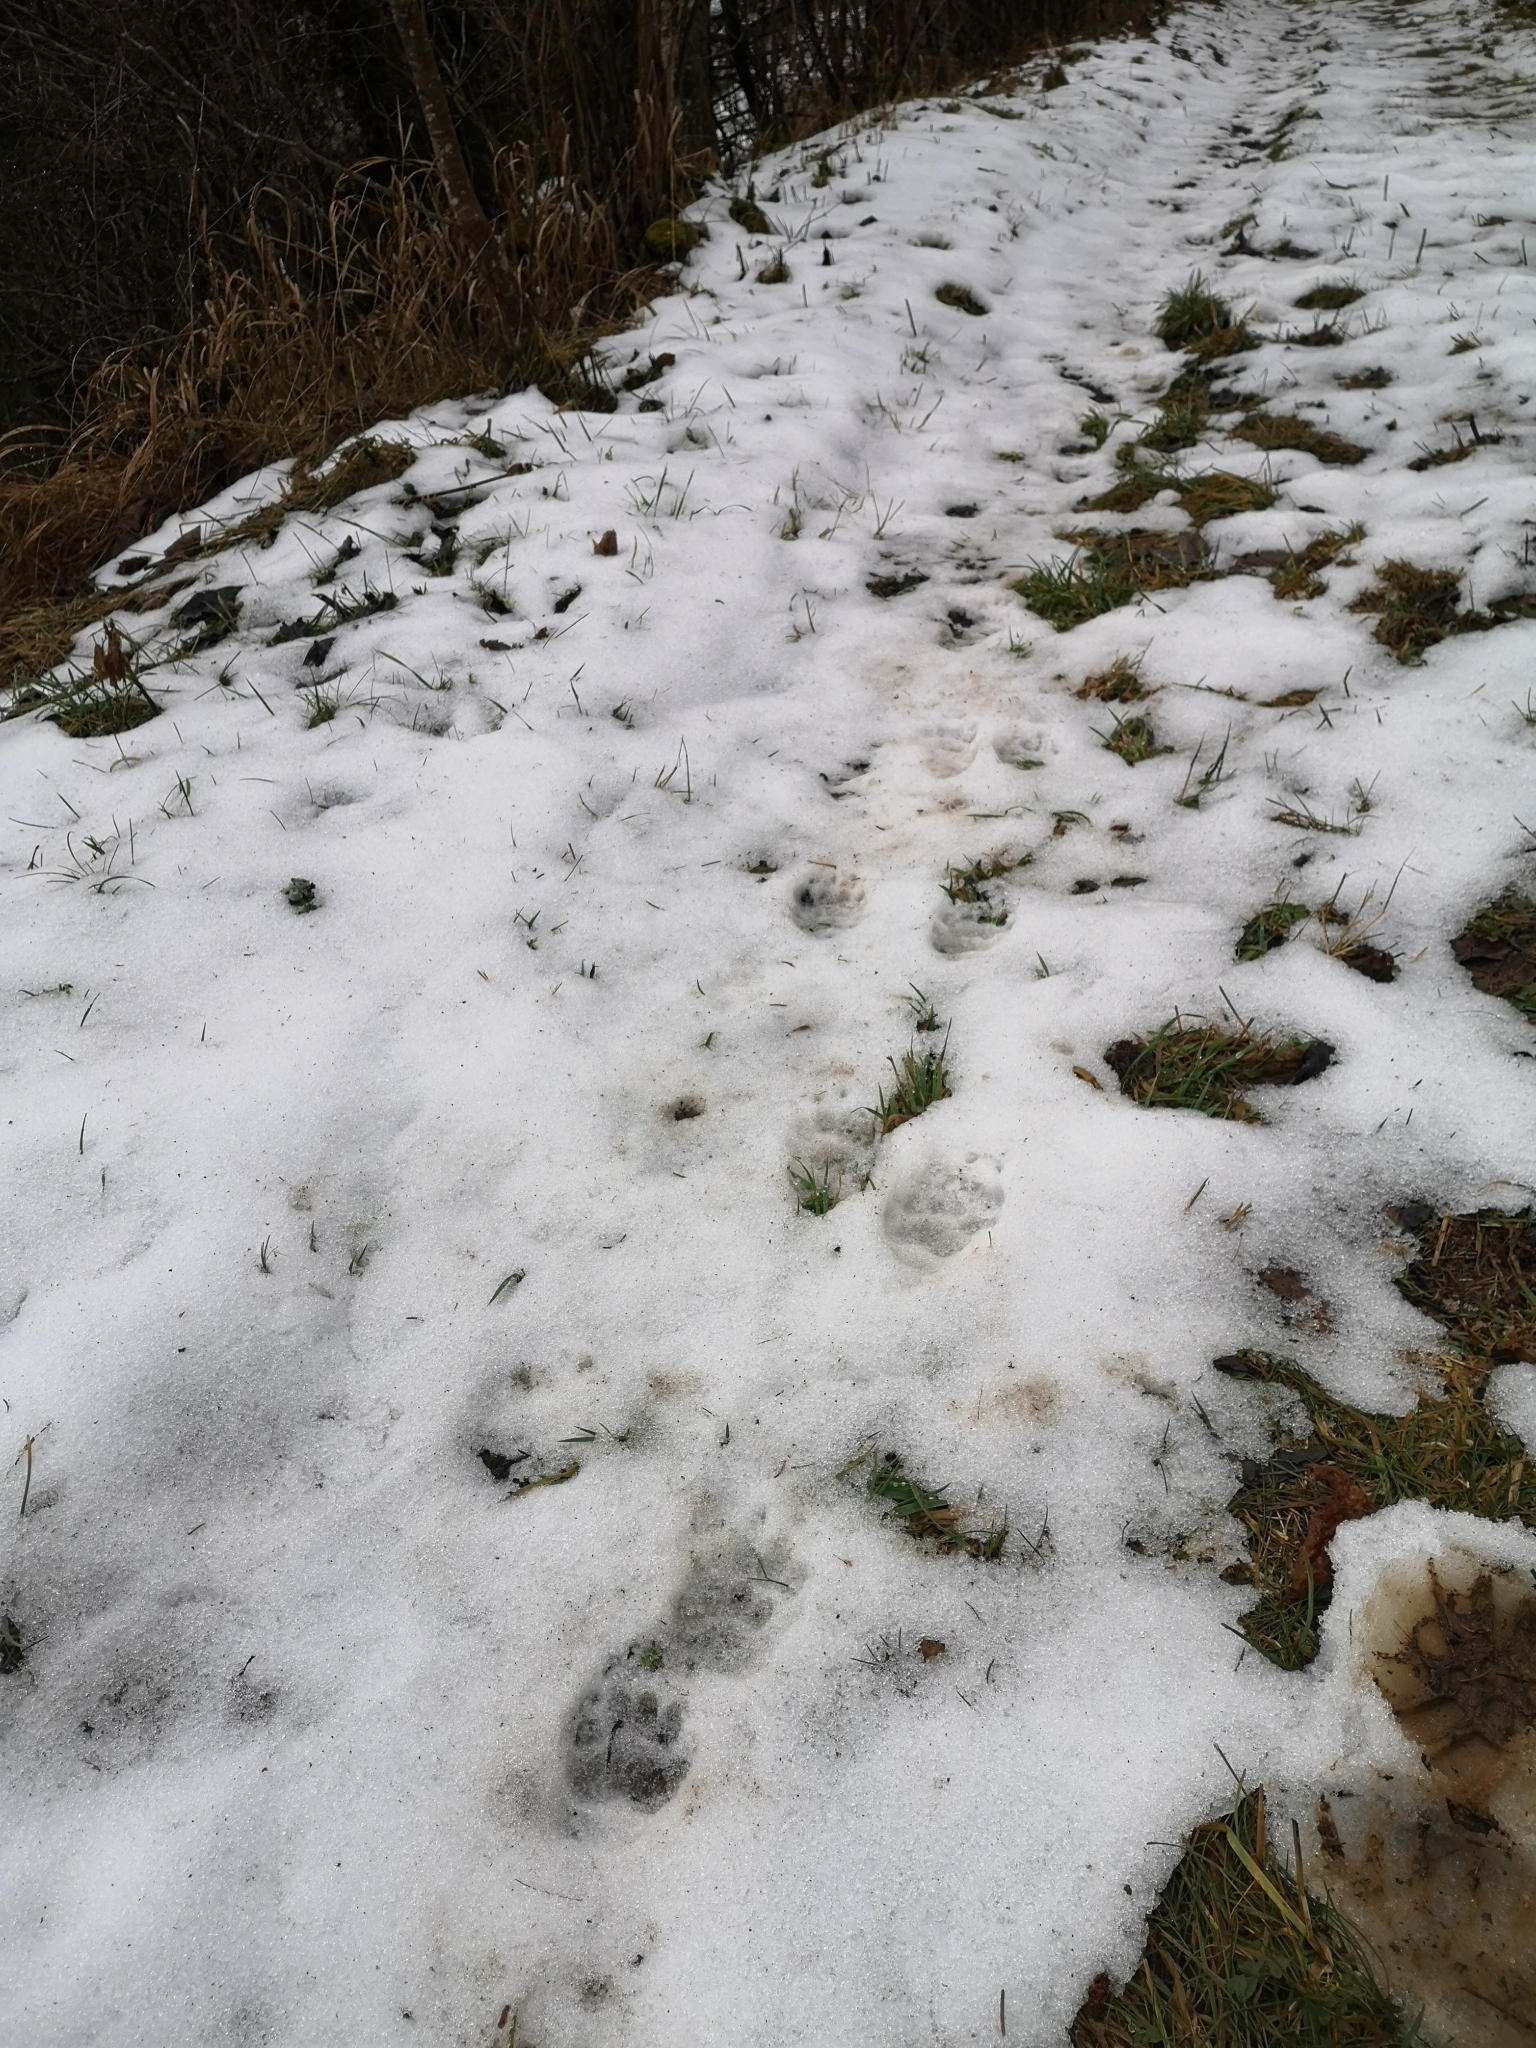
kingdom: Animalia
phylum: Chordata
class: Mammalia
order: Carnivora
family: Mustelidae
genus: Meles
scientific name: Meles meles
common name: Eurasian badger
